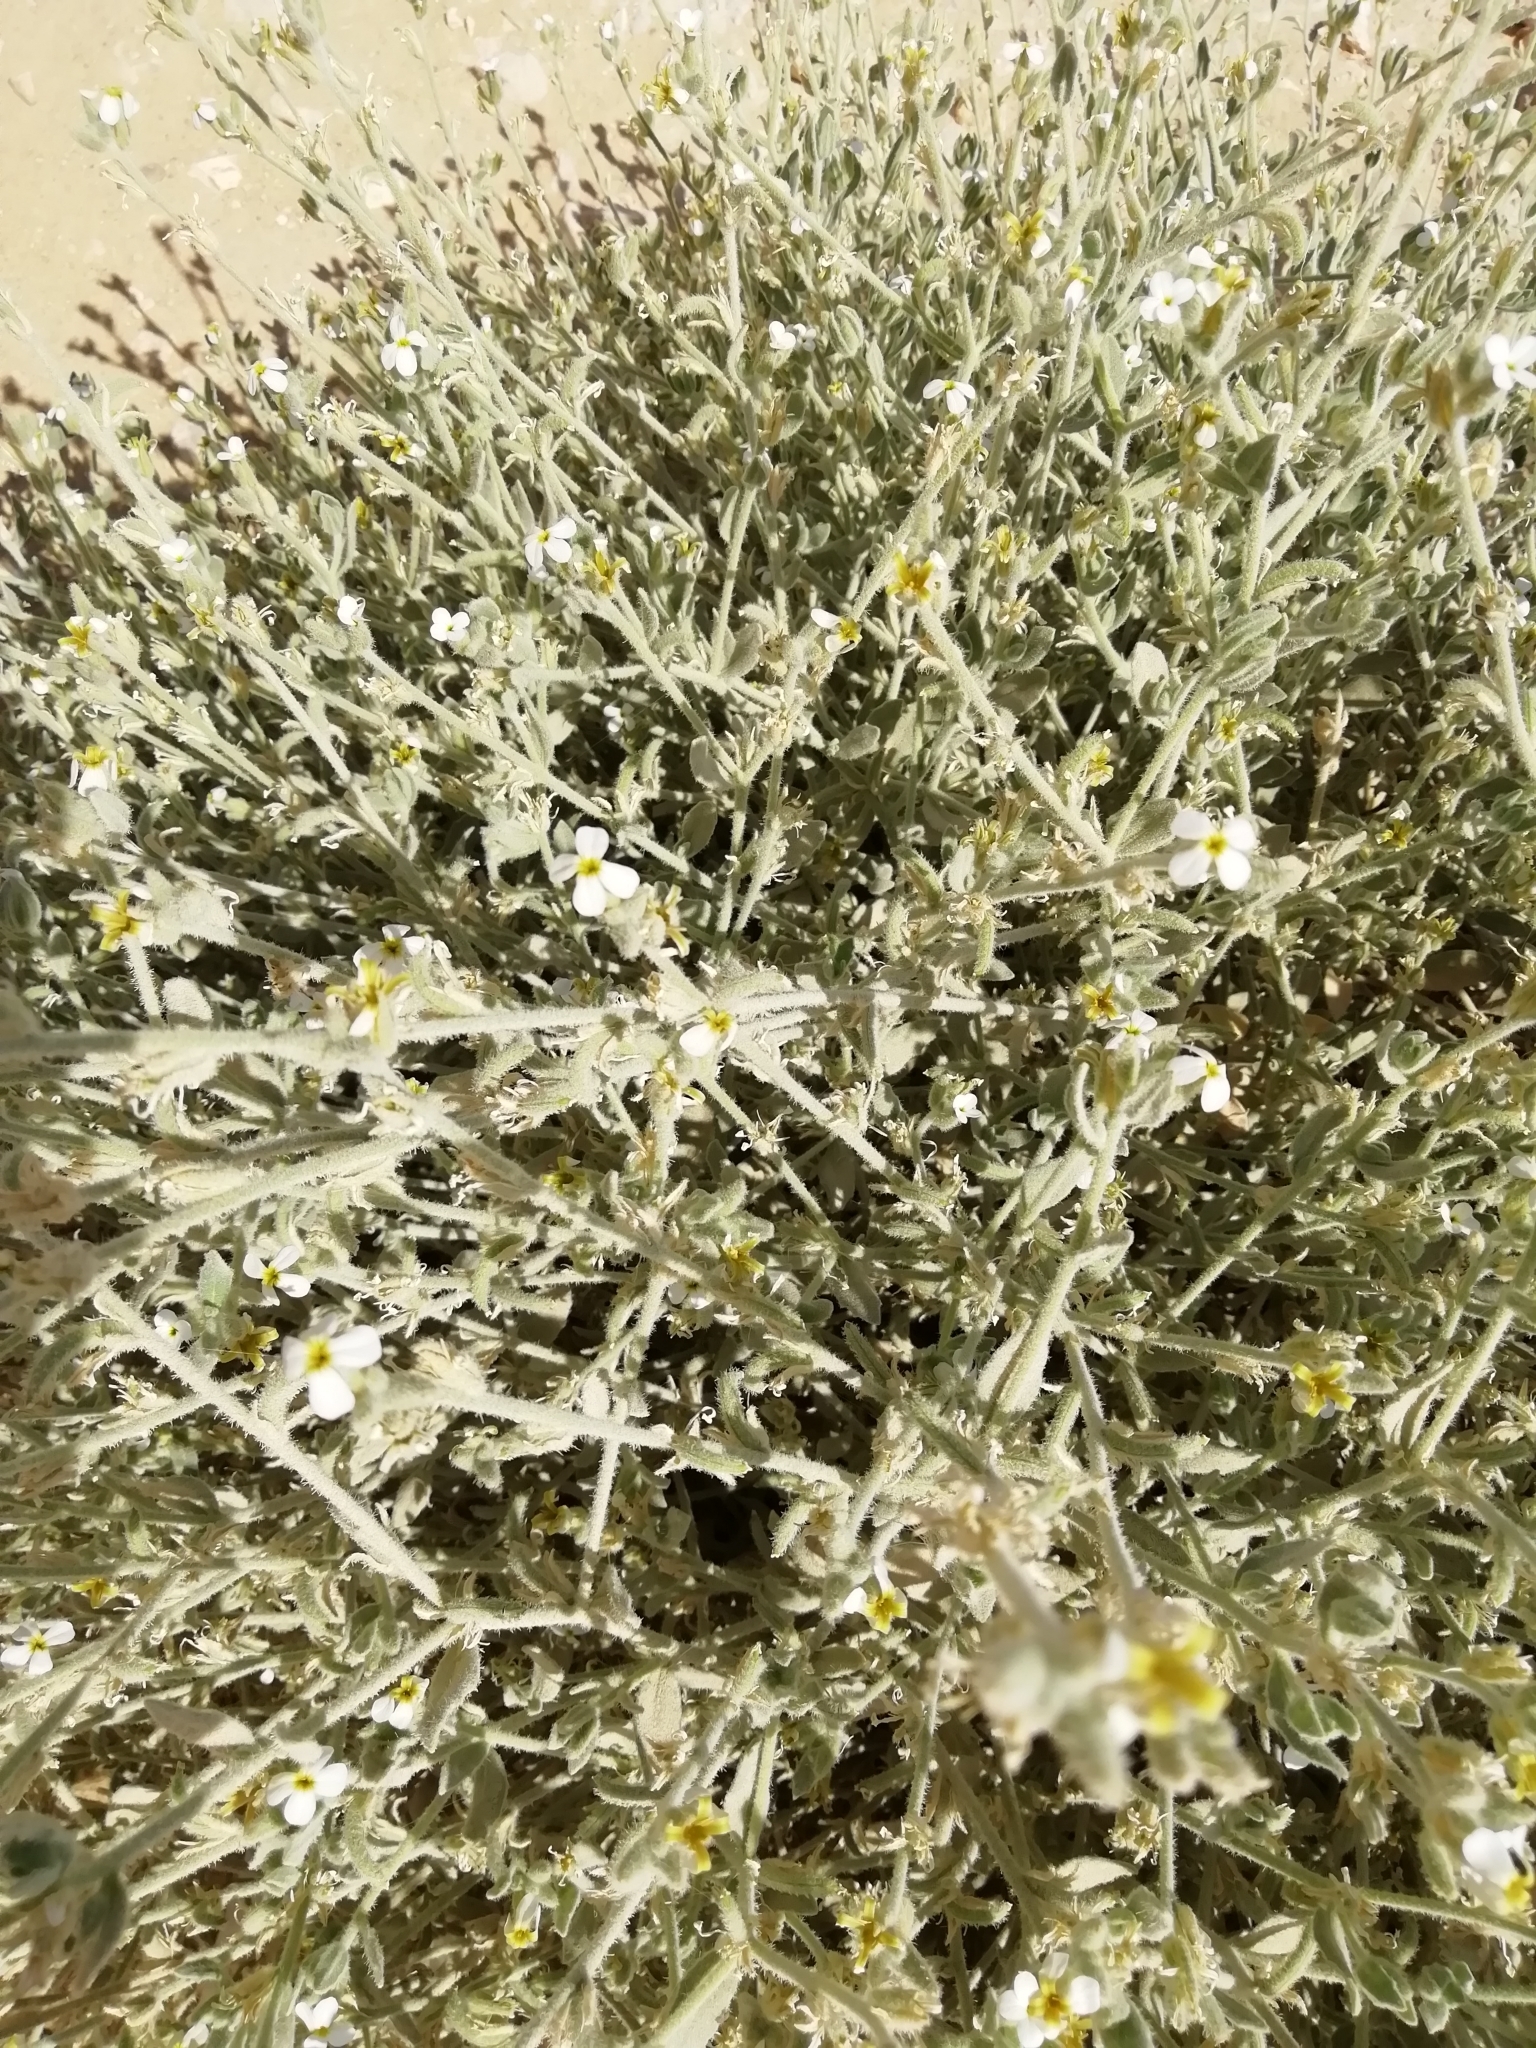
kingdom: Plantae
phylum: Tracheophyta
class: Magnoliopsida
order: Brassicales
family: Brassicaceae
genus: Morettia
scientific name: Morettia parviflora
